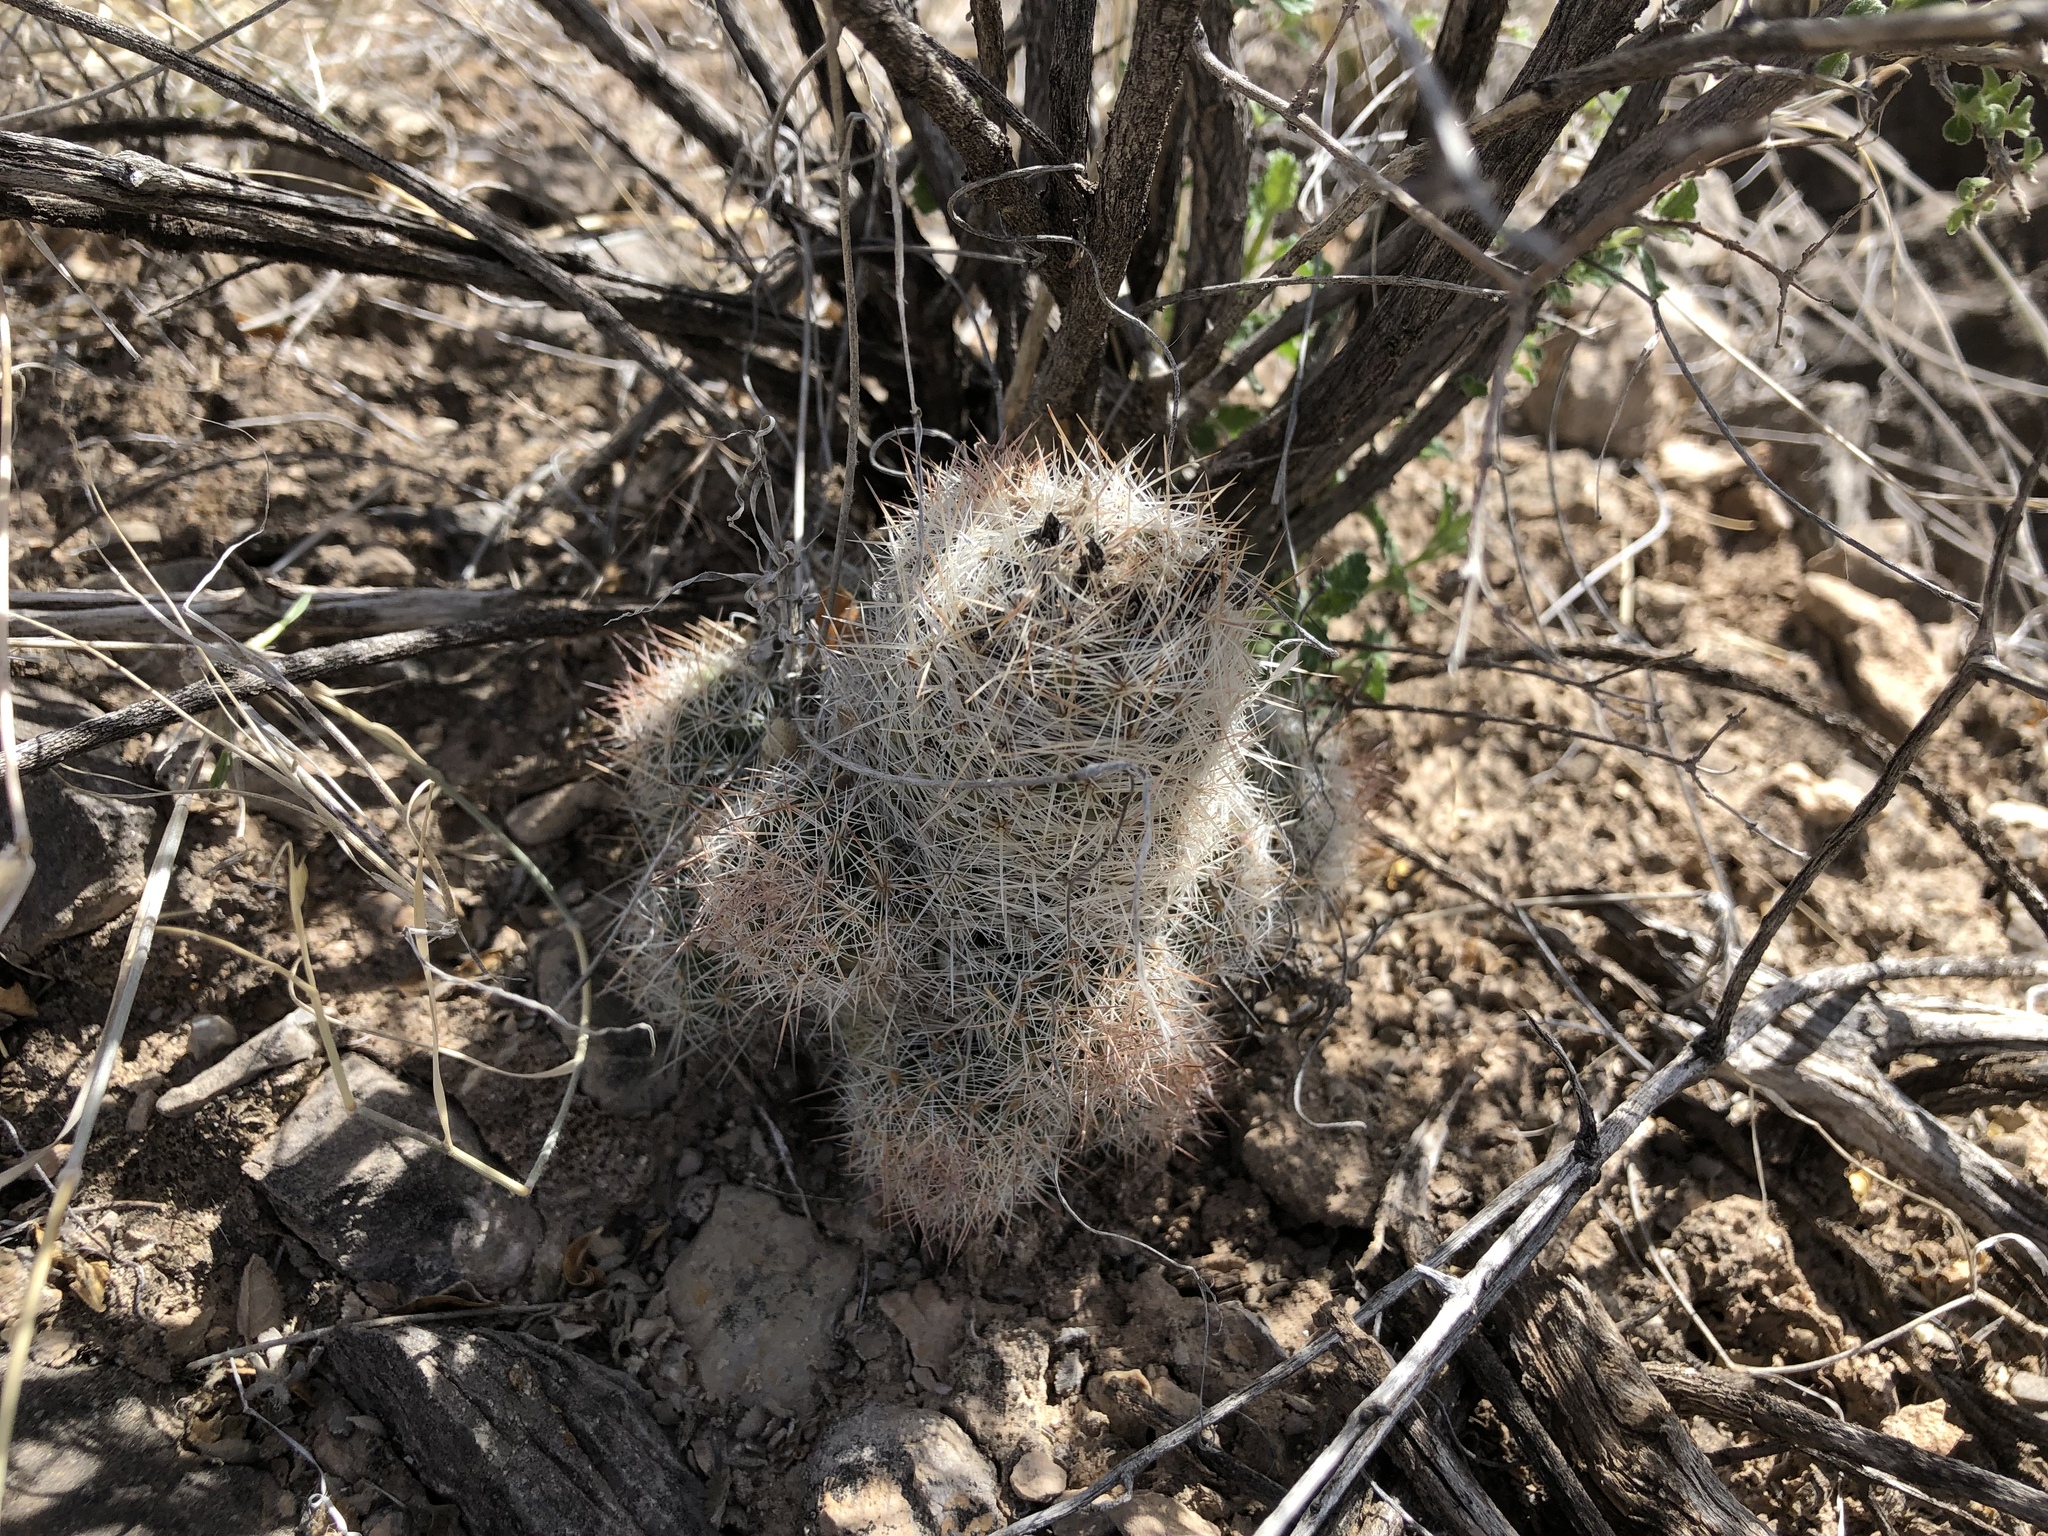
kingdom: Plantae
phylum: Tracheophyta
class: Magnoliopsida
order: Caryophyllales
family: Cactaceae
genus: Pelecyphora
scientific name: Pelecyphora tuberculosa
